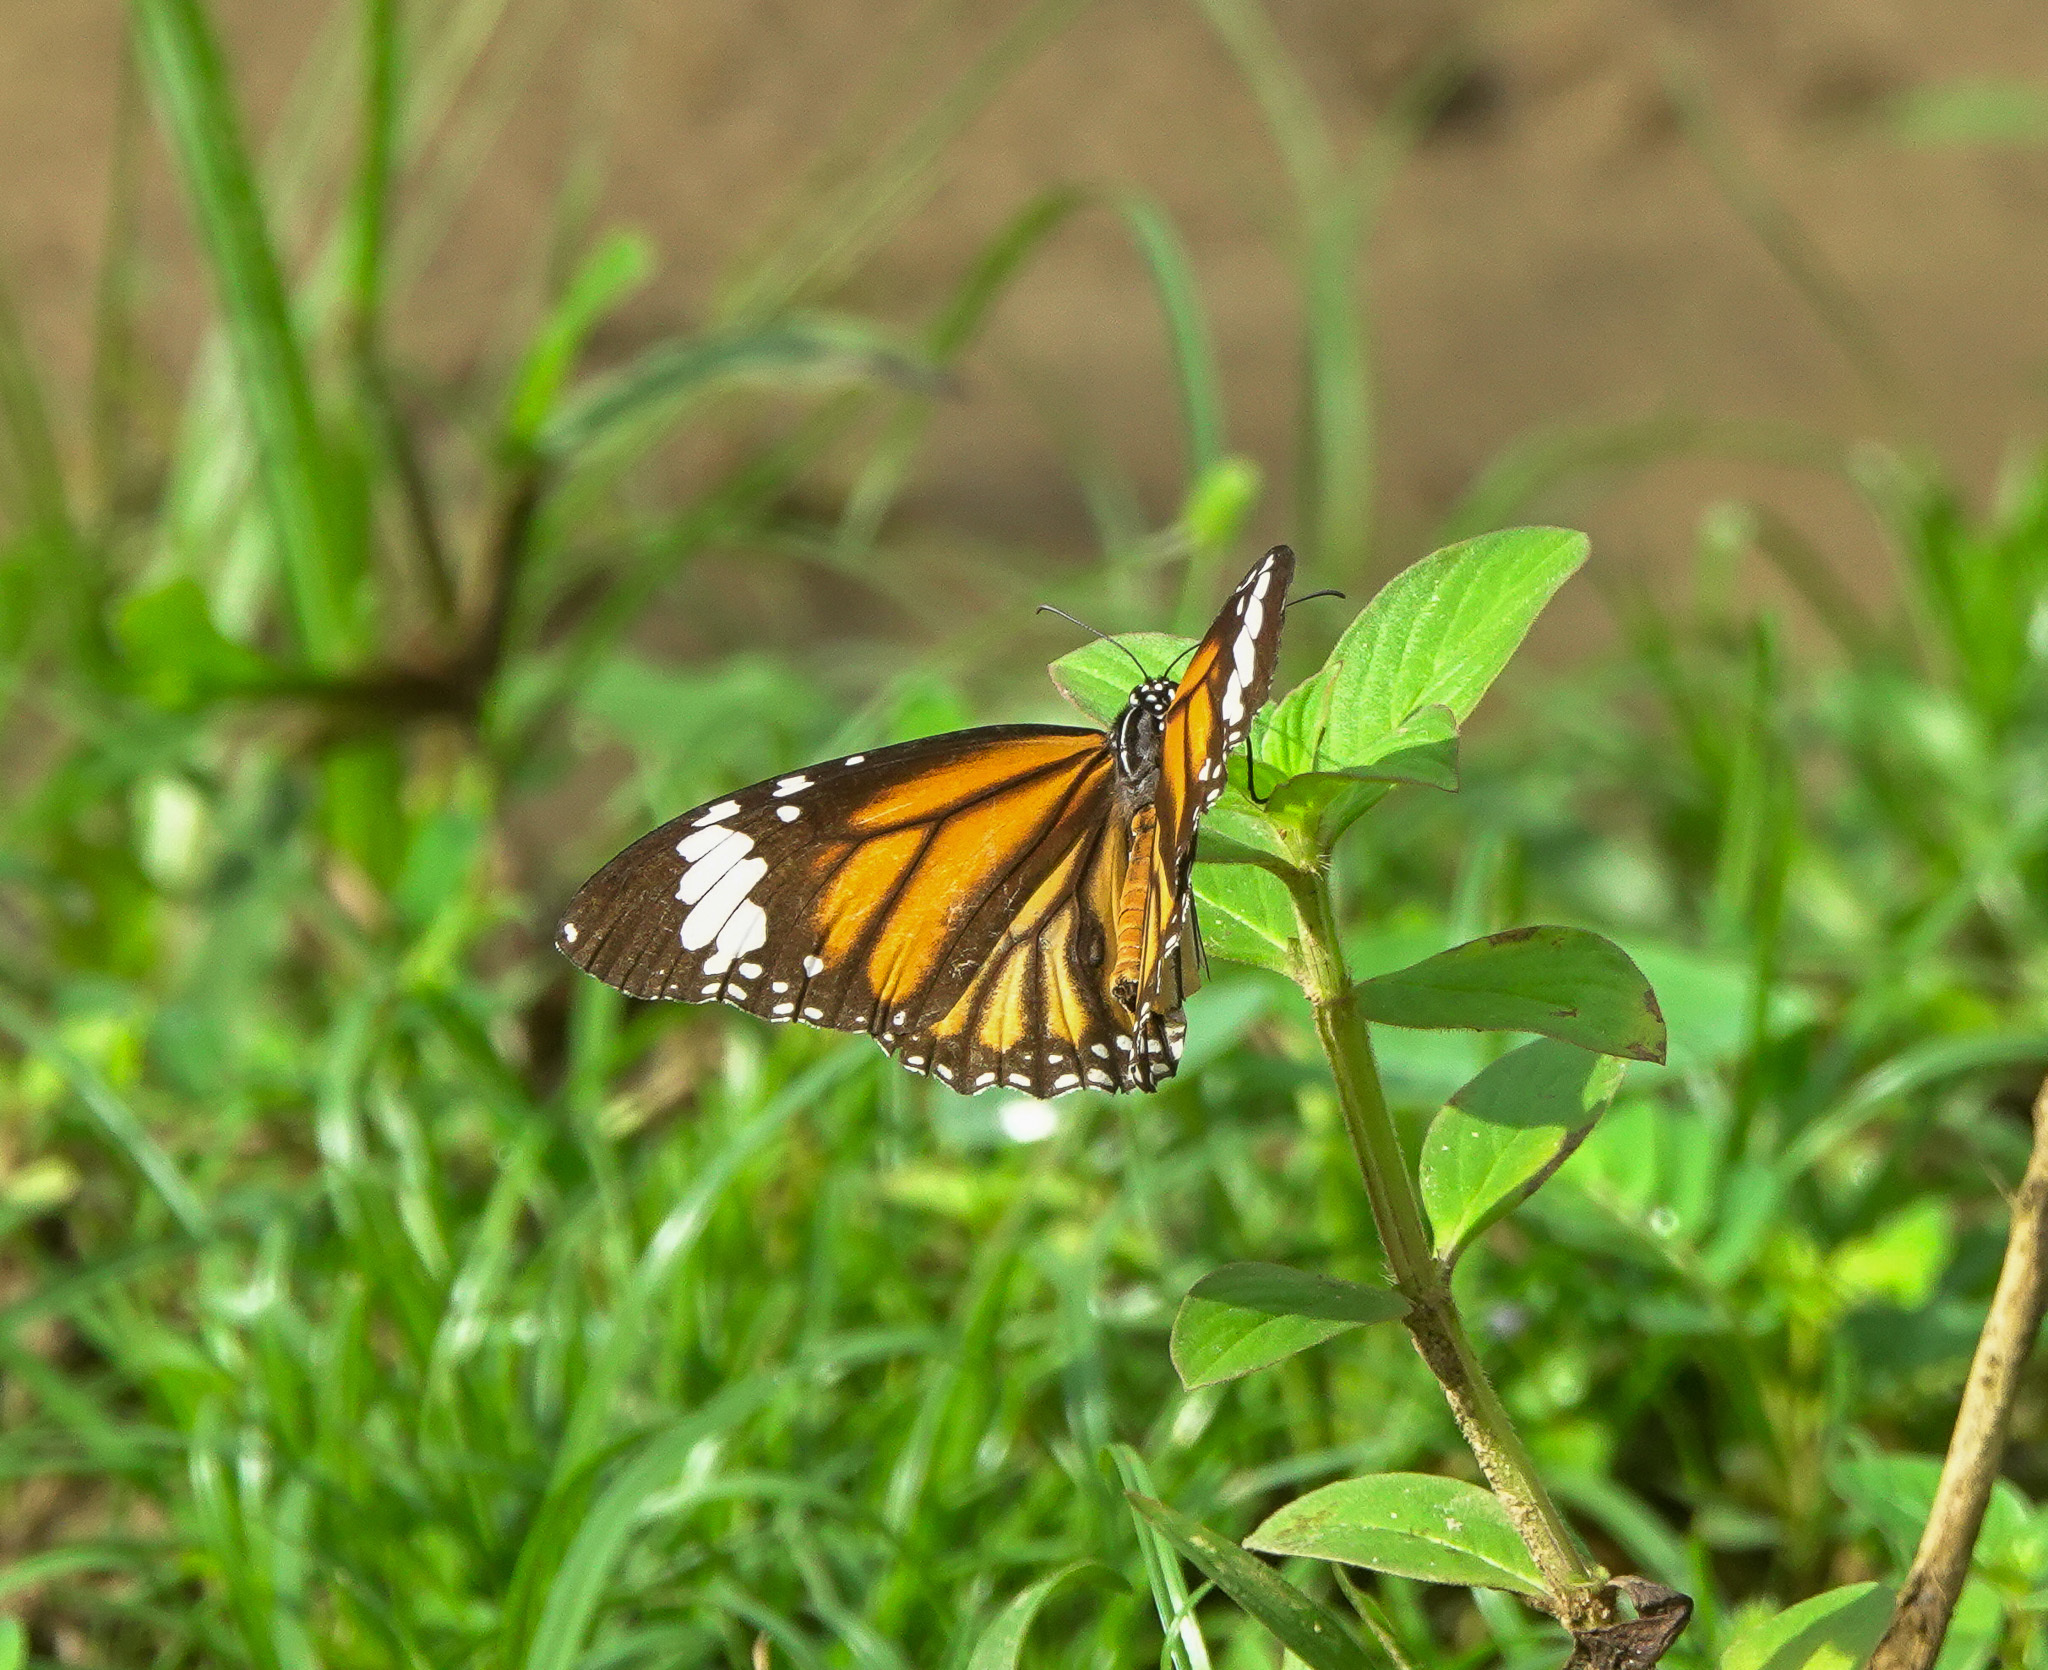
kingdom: Animalia
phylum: Arthropoda
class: Insecta
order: Lepidoptera
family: Nymphalidae
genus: Danaus
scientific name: Danaus genutia
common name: Common tiger butterfly
